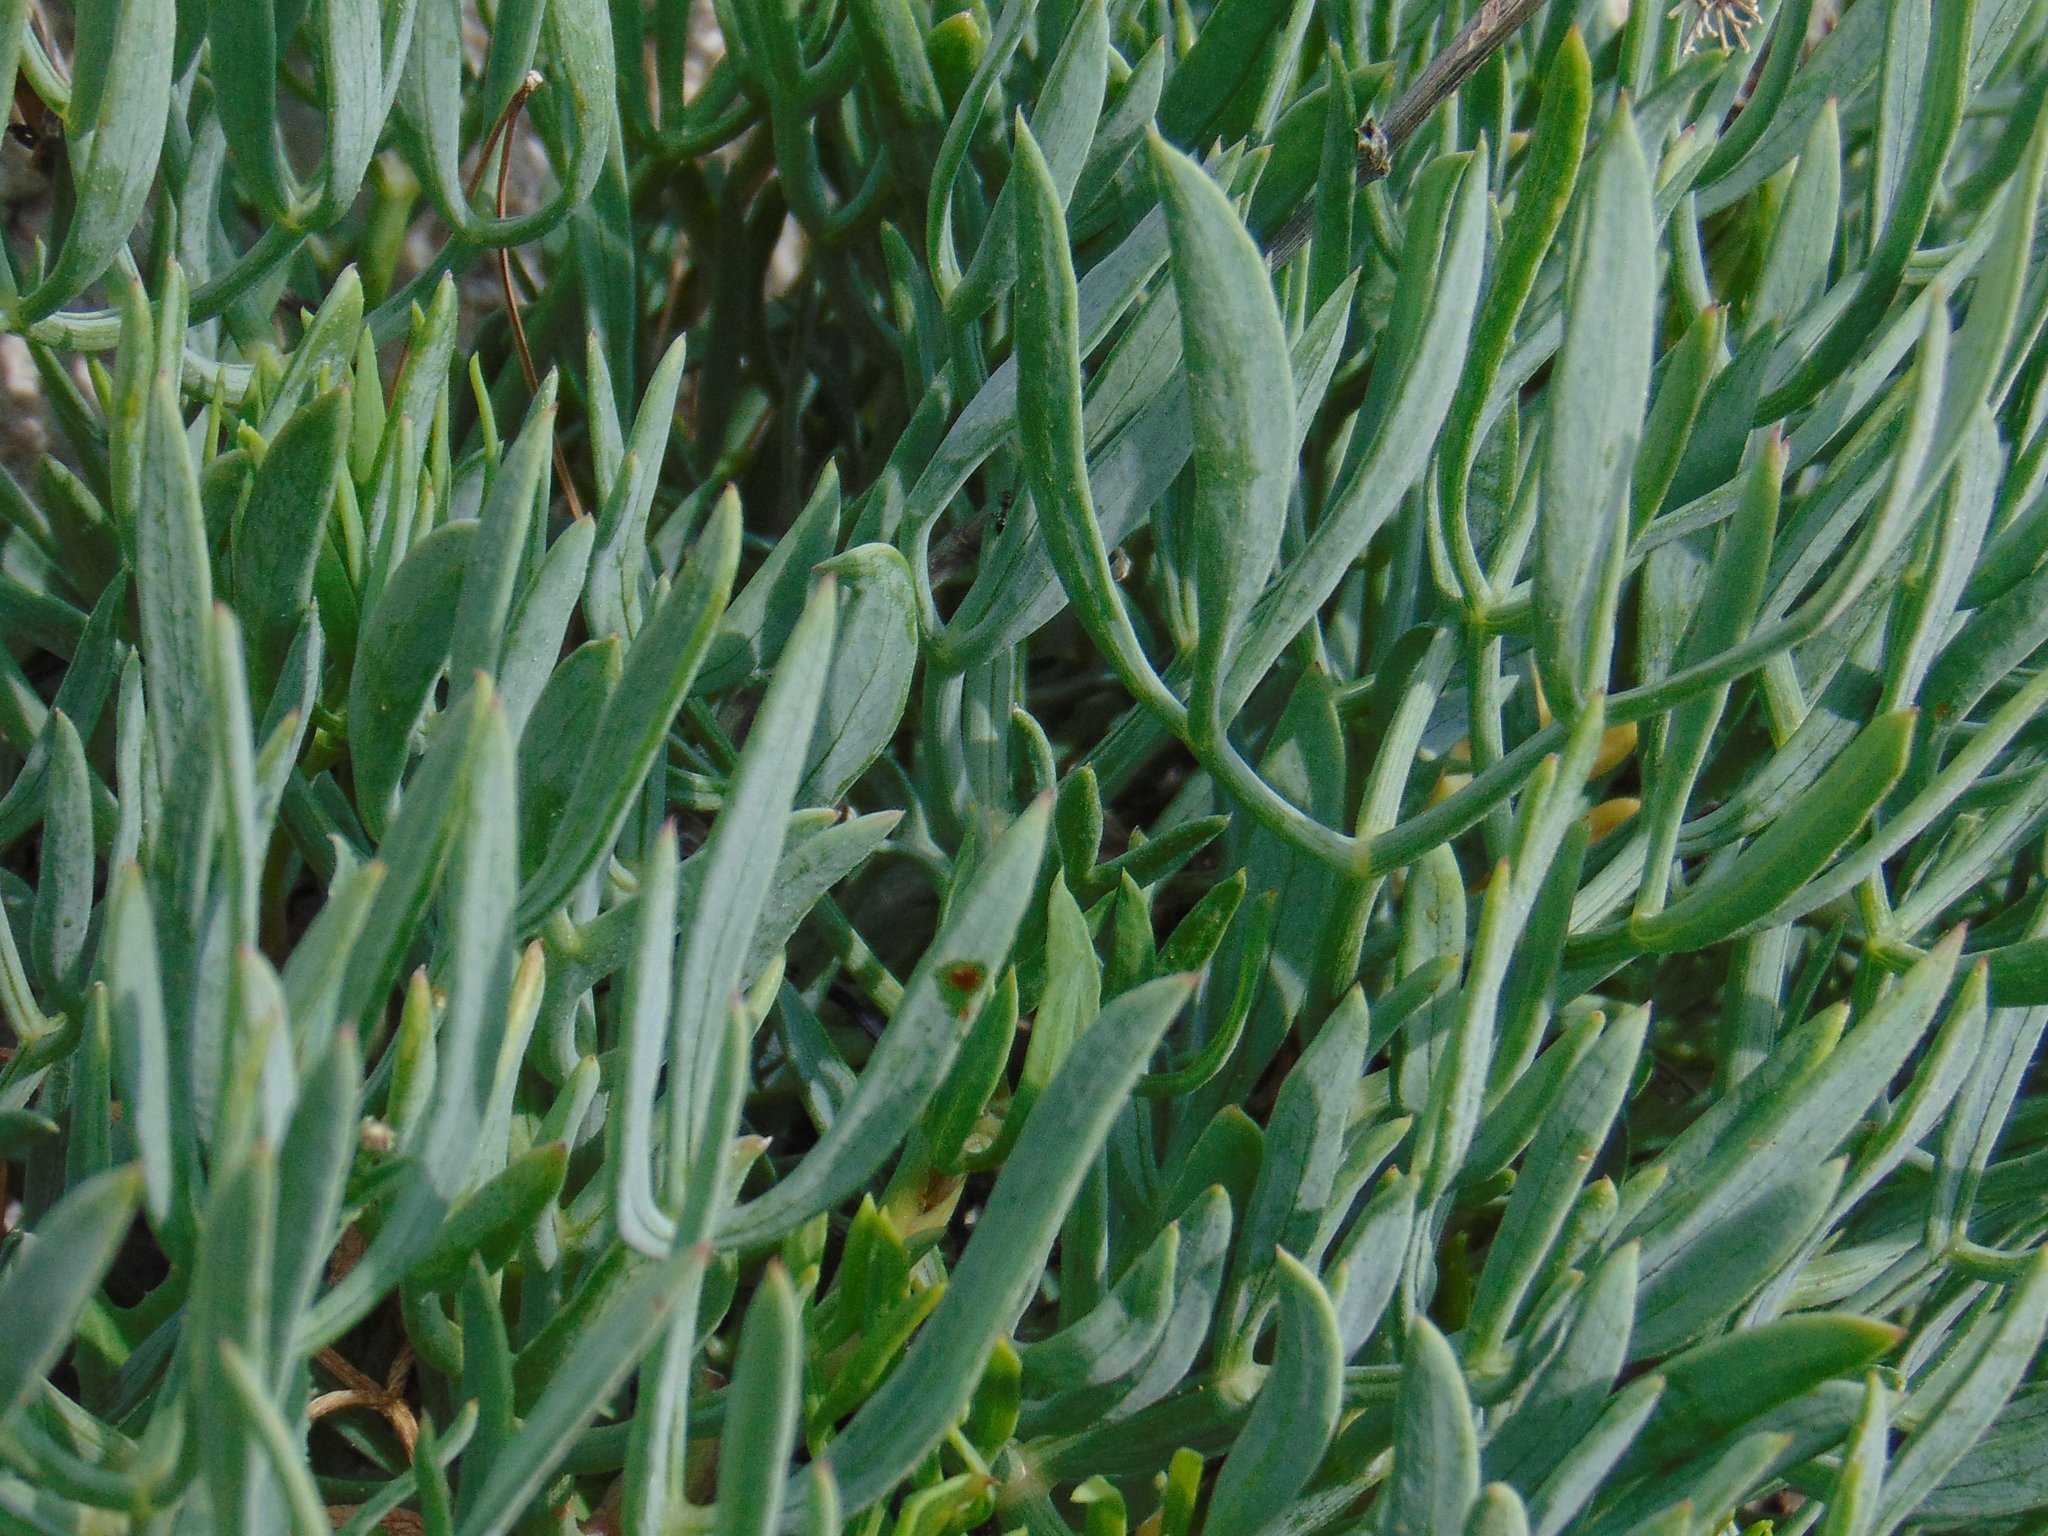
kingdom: Plantae
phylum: Tracheophyta
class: Magnoliopsida
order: Apiales
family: Apiaceae
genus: Crithmum
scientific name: Crithmum maritimum
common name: Rock samphire
